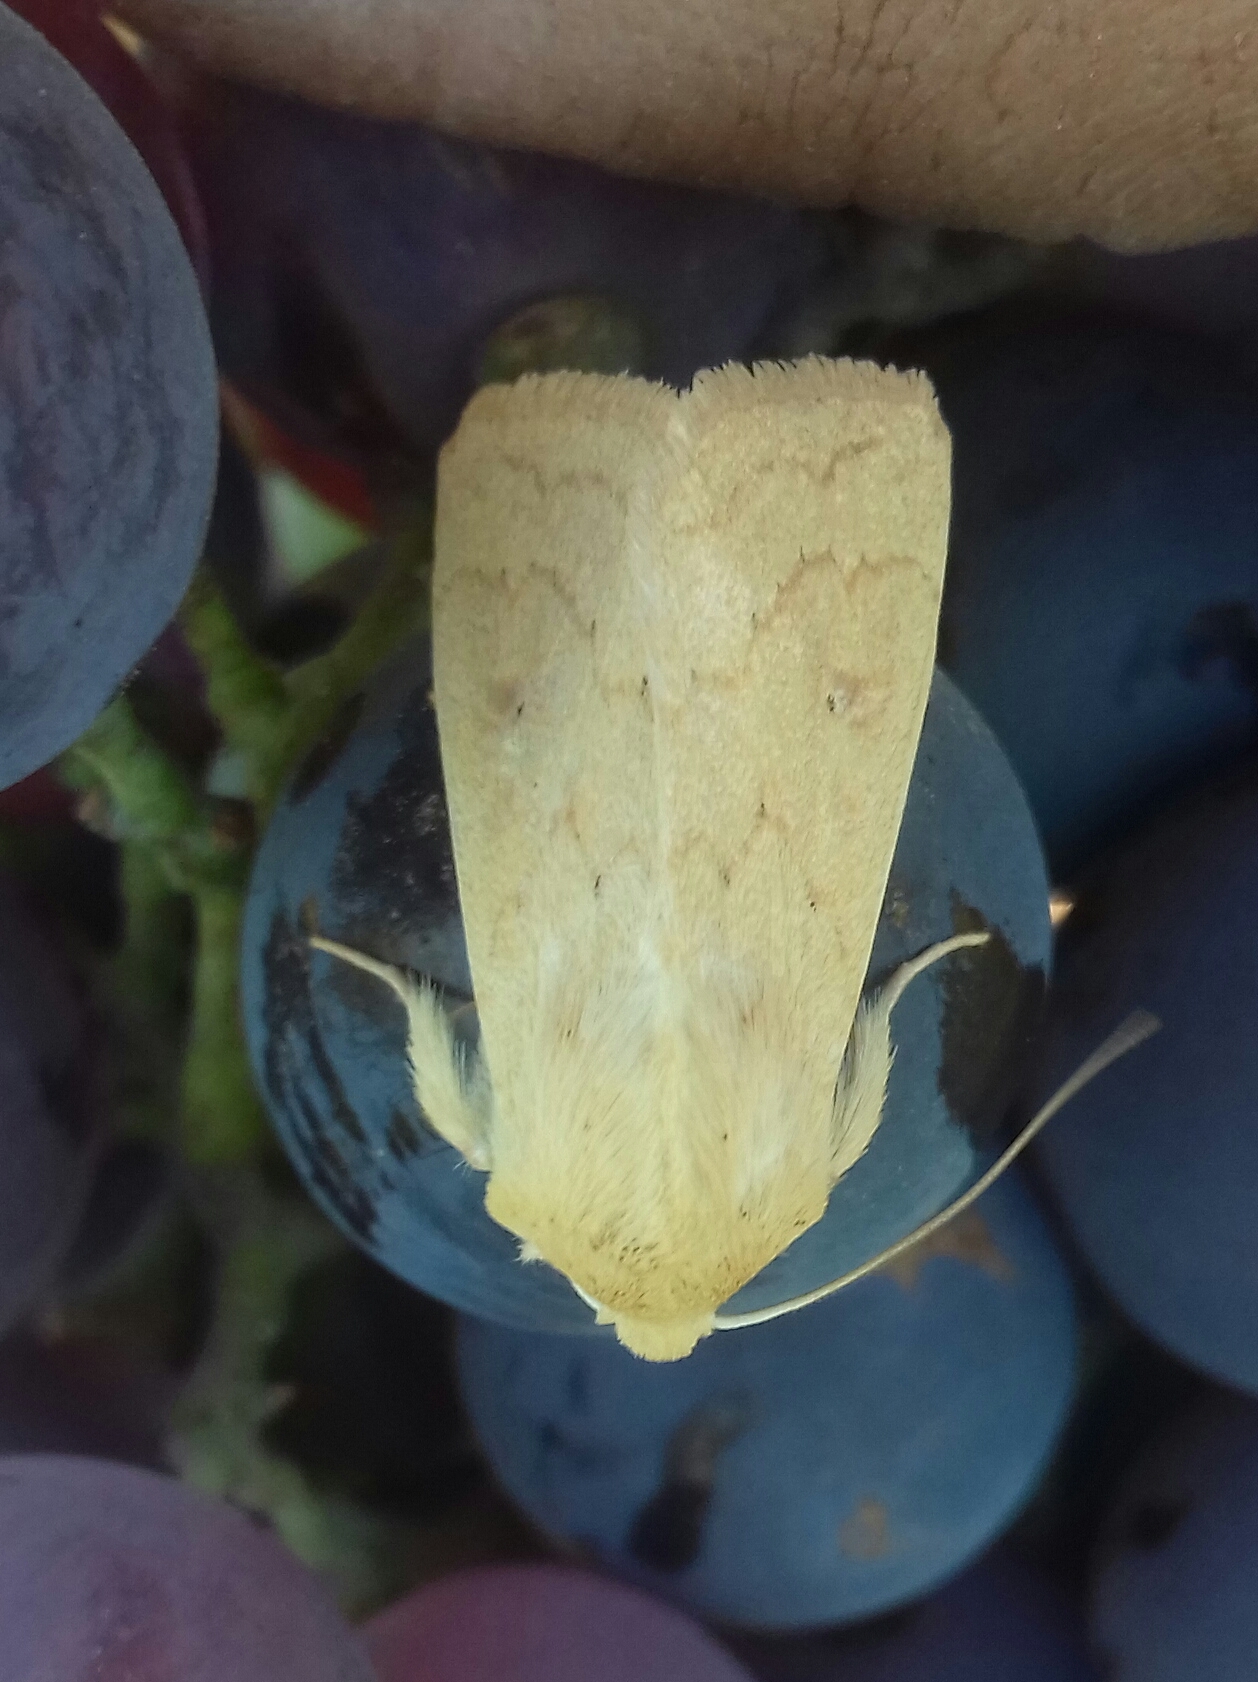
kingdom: Animalia
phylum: Arthropoda
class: Insecta
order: Lepidoptera
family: Noctuidae
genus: Mythimna
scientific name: Mythimna vitellina
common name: Delicate
